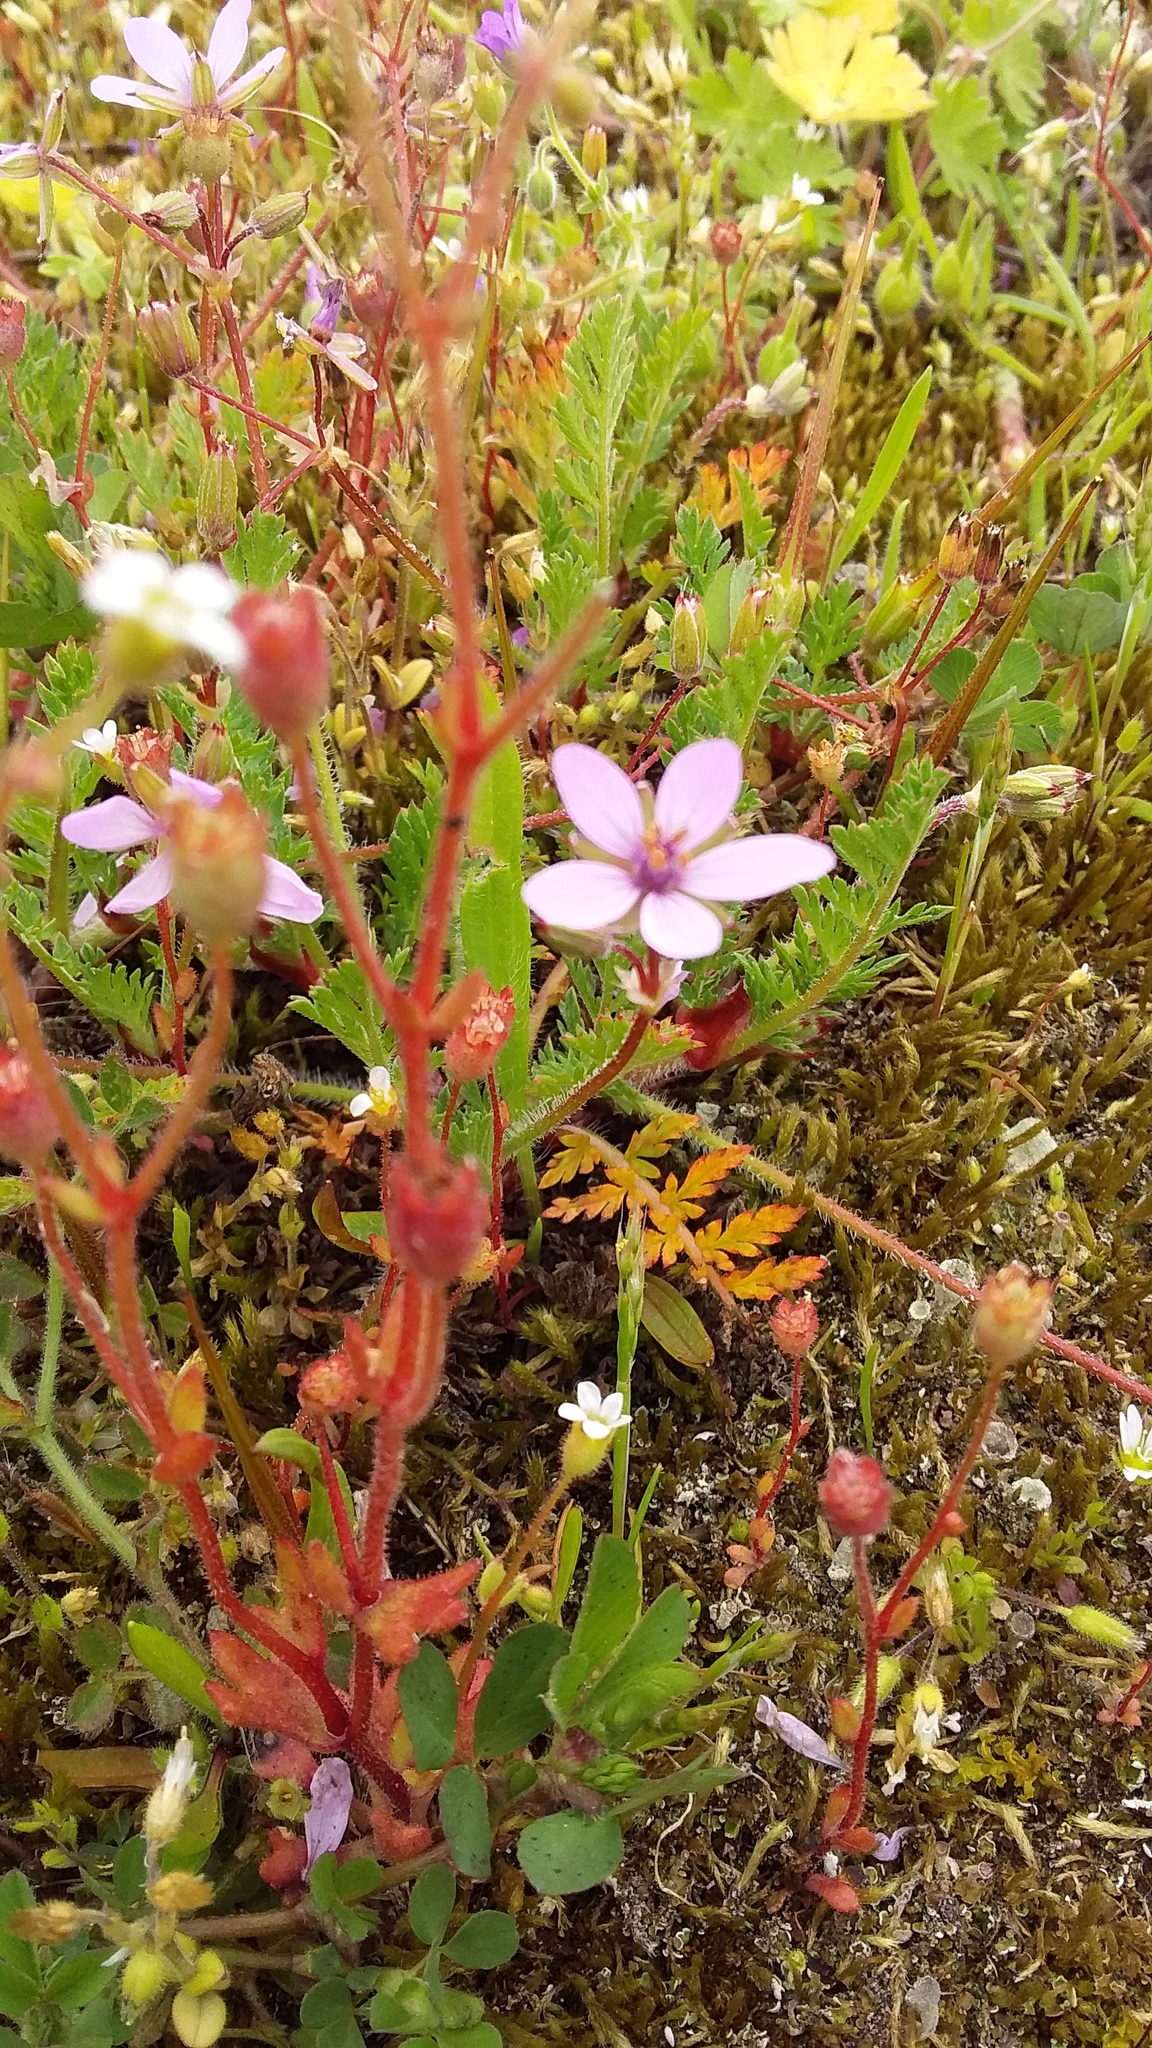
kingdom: Plantae
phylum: Tracheophyta
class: Magnoliopsida
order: Geraniales
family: Geraniaceae
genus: Erodium
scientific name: Erodium cicutarium
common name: Common stork's-bill
